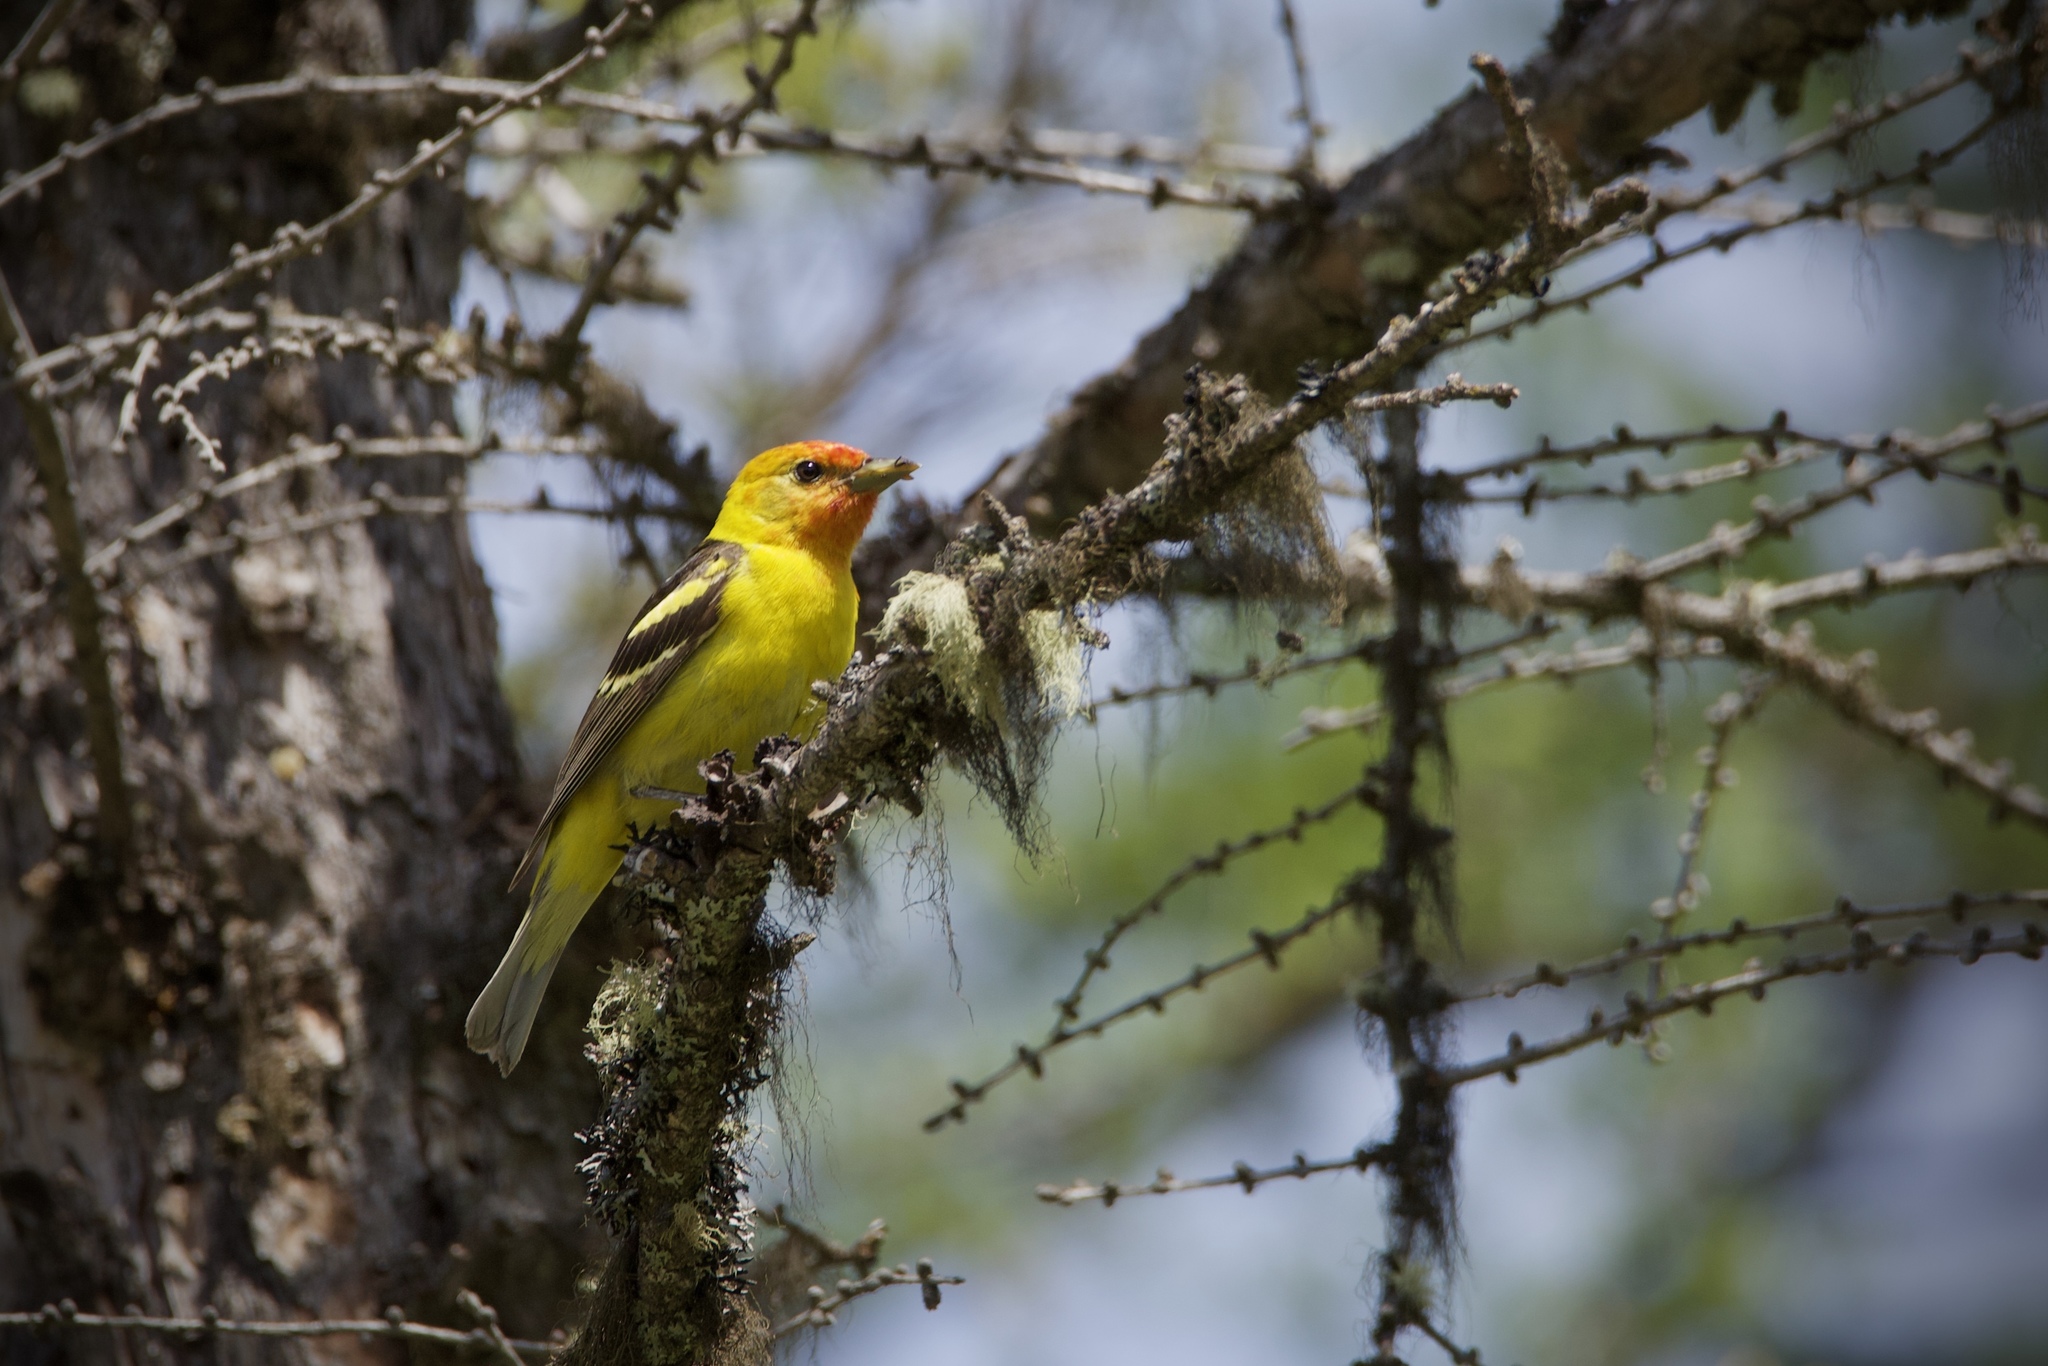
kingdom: Animalia
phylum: Chordata
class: Aves
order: Passeriformes
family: Cardinalidae
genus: Piranga
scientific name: Piranga ludoviciana
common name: Western tanager
